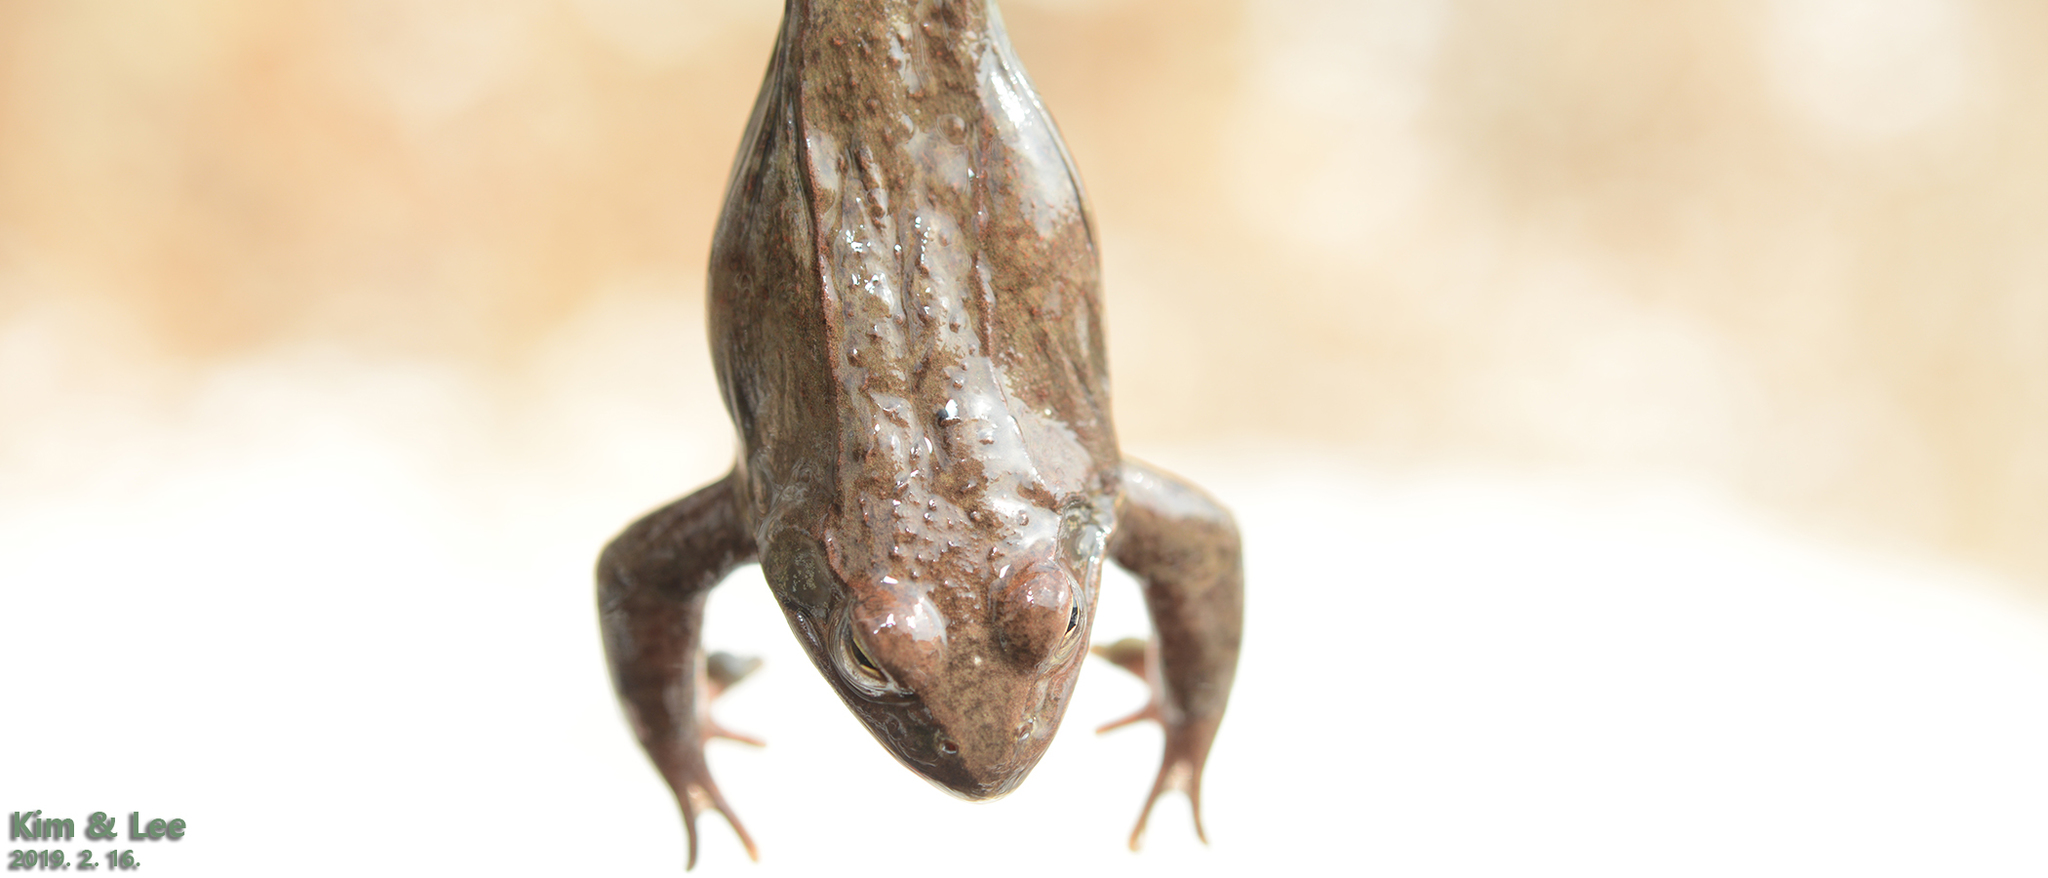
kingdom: Animalia
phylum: Chordata
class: Amphibia
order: Anura
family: Ranidae
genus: Rana
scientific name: Rana dybowskii
